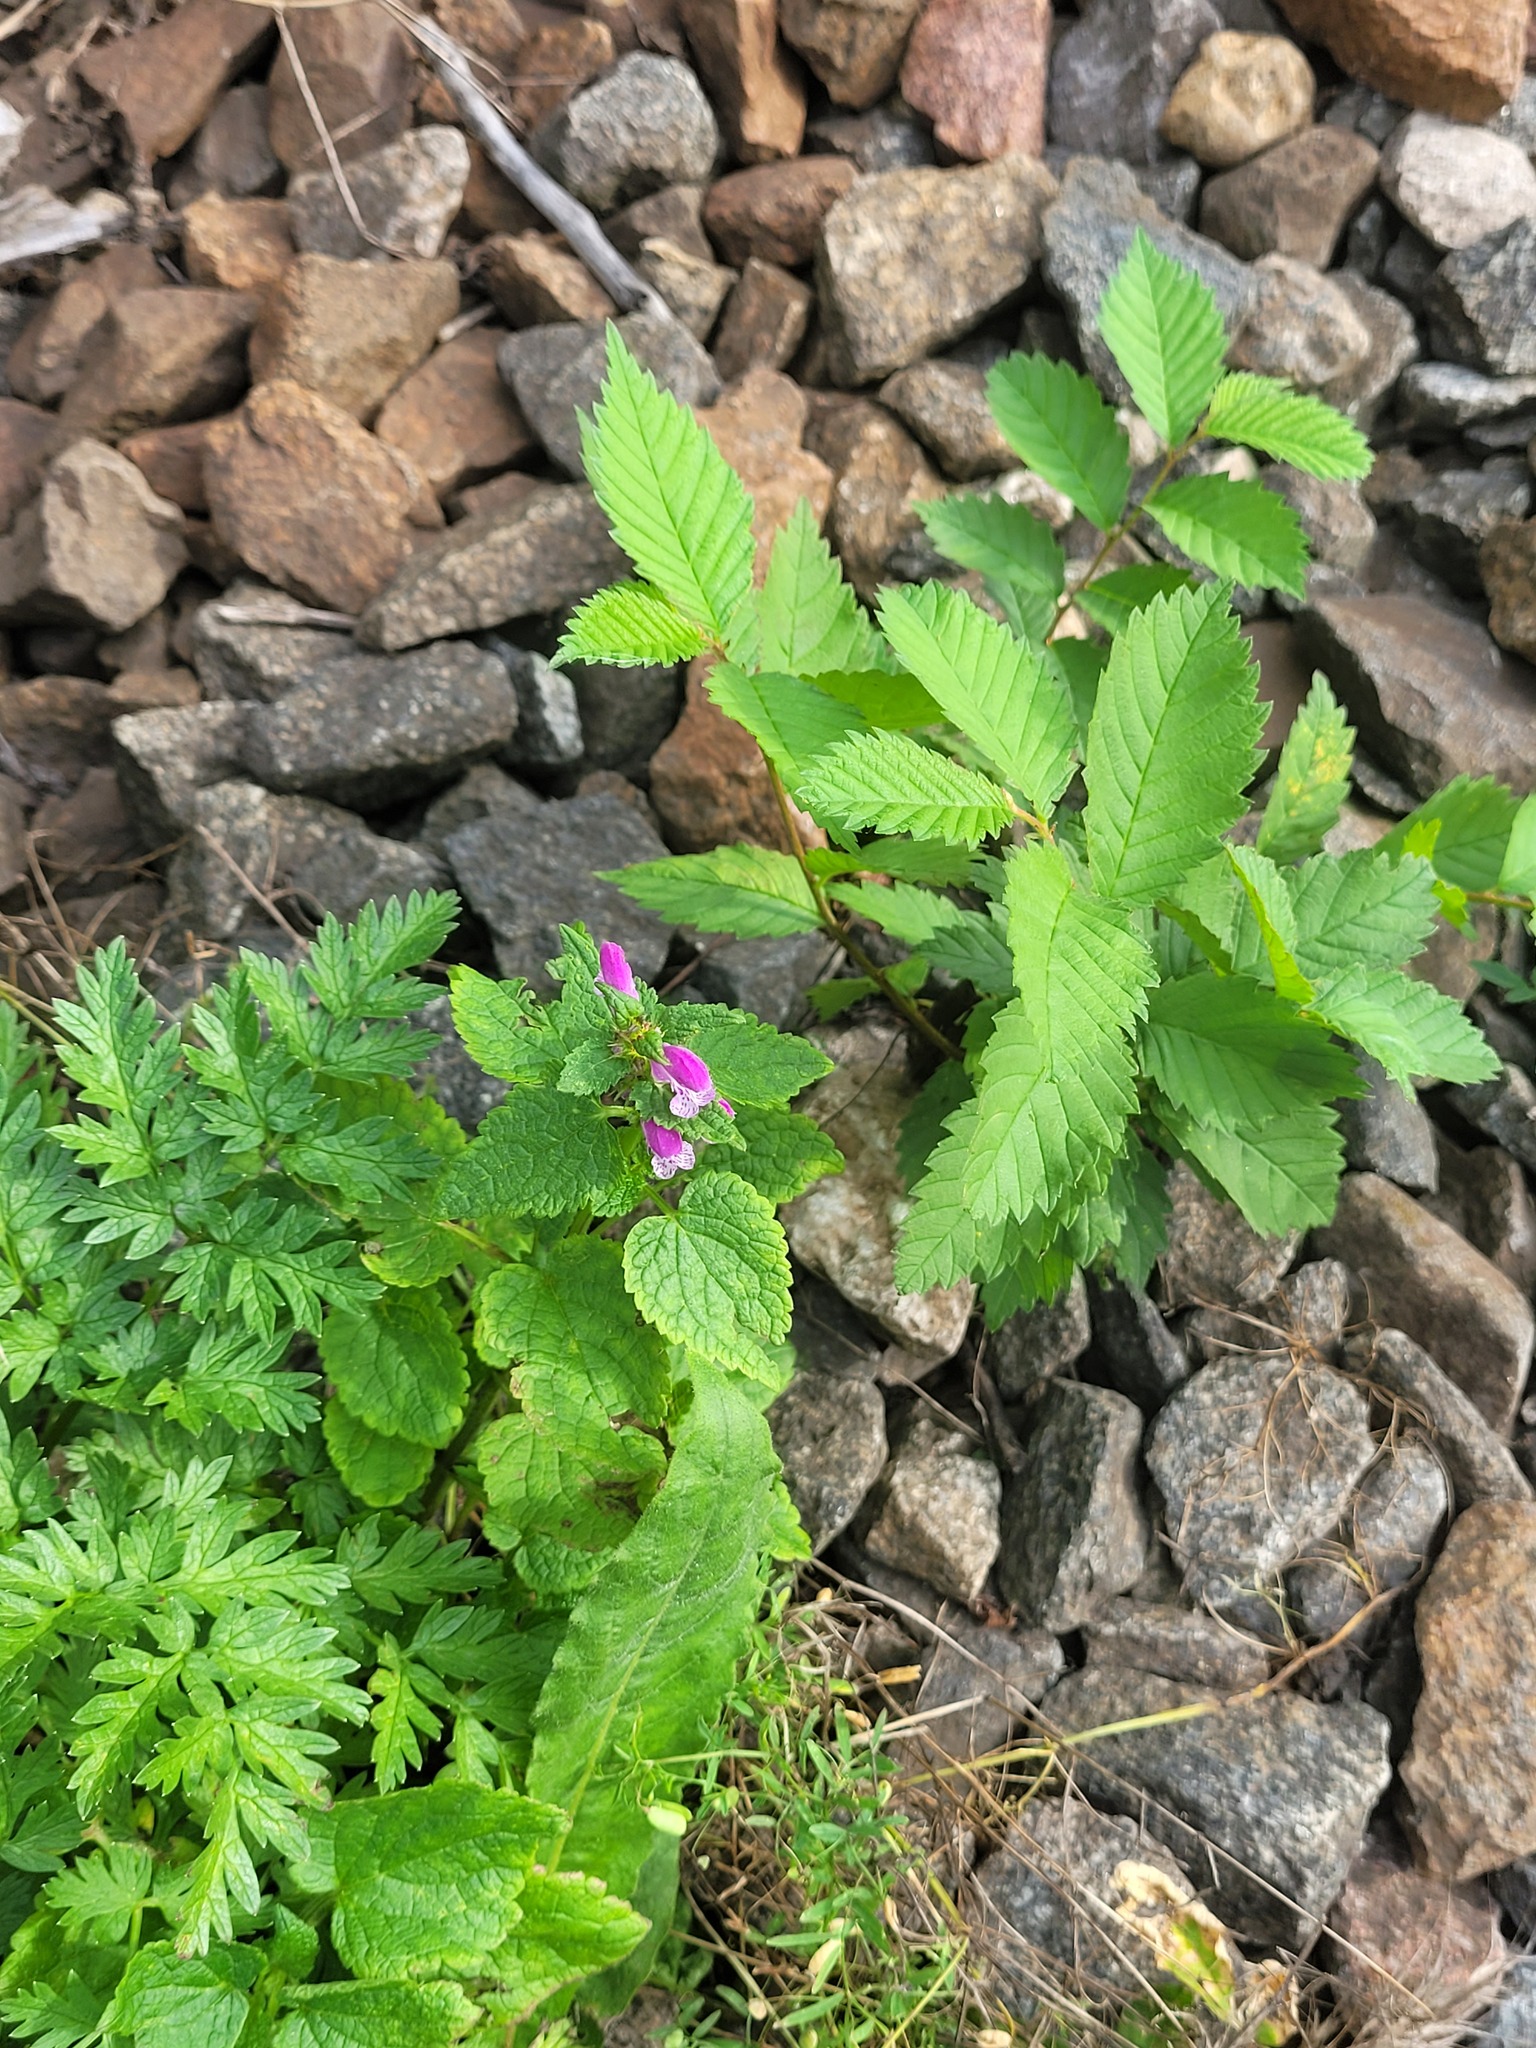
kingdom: Plantae
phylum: Tracheophyta
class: Magnoliopsida
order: Lamiales
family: Lamiaceae
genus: Lamium
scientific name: Lamium maculatum
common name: Spotted dead-nettle
